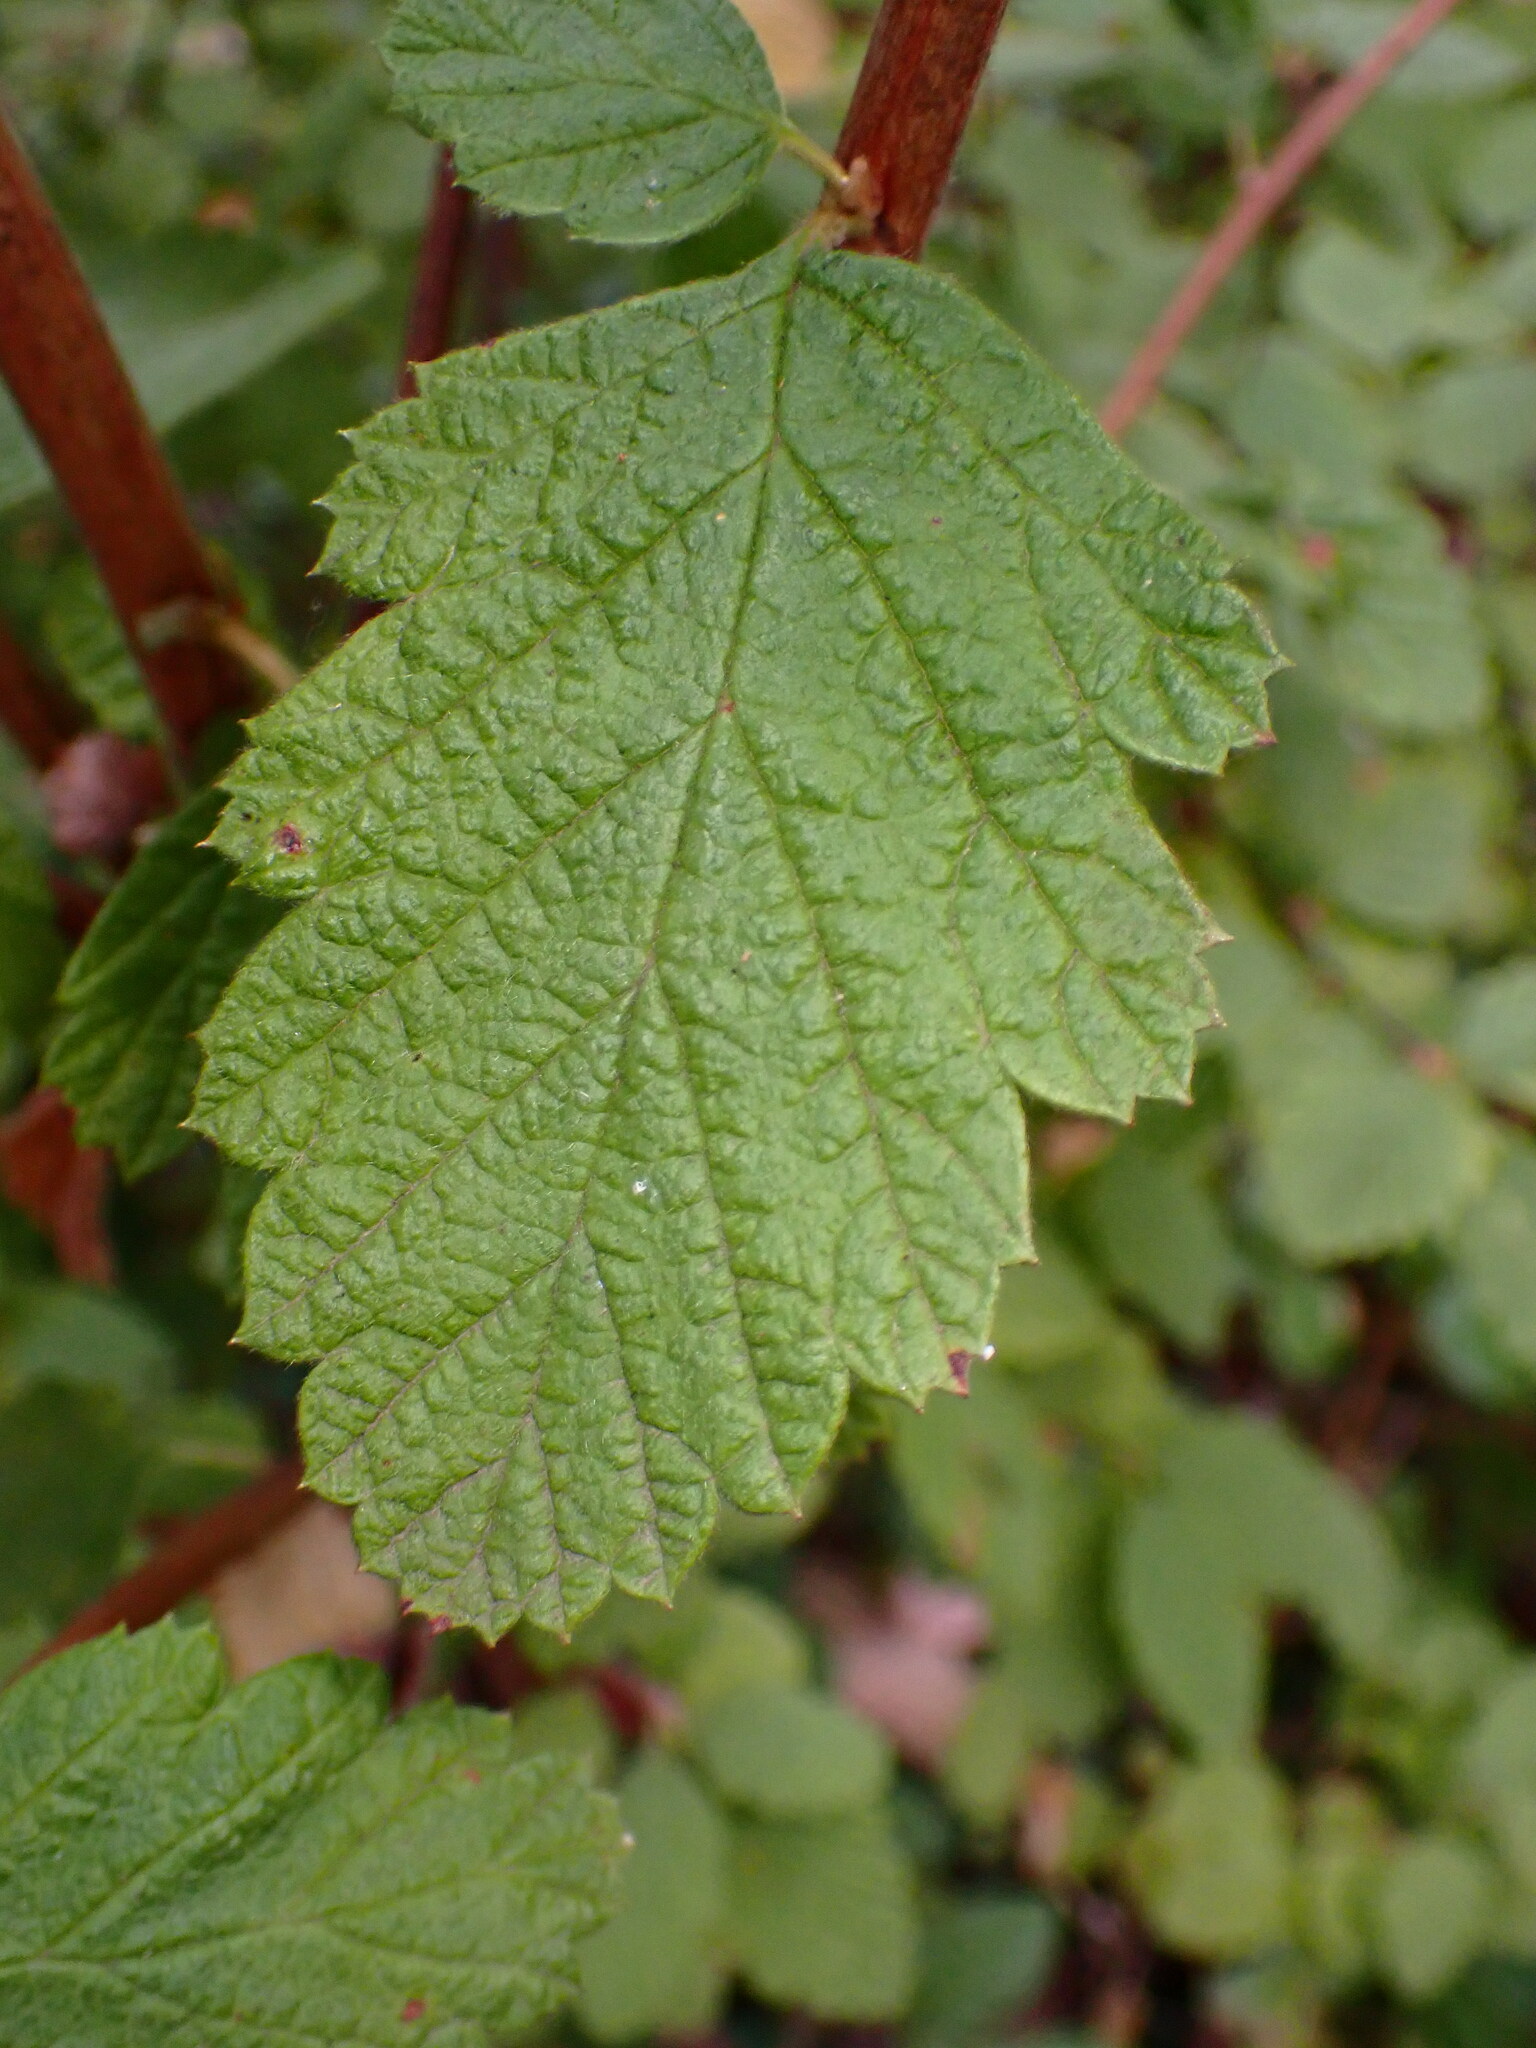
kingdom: Plantae
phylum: Tracheophyta
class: Magnoliopsida
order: Rosales
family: Rosaceae
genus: Holodiscus
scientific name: Holodiscus discolor
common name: Oceanspray
